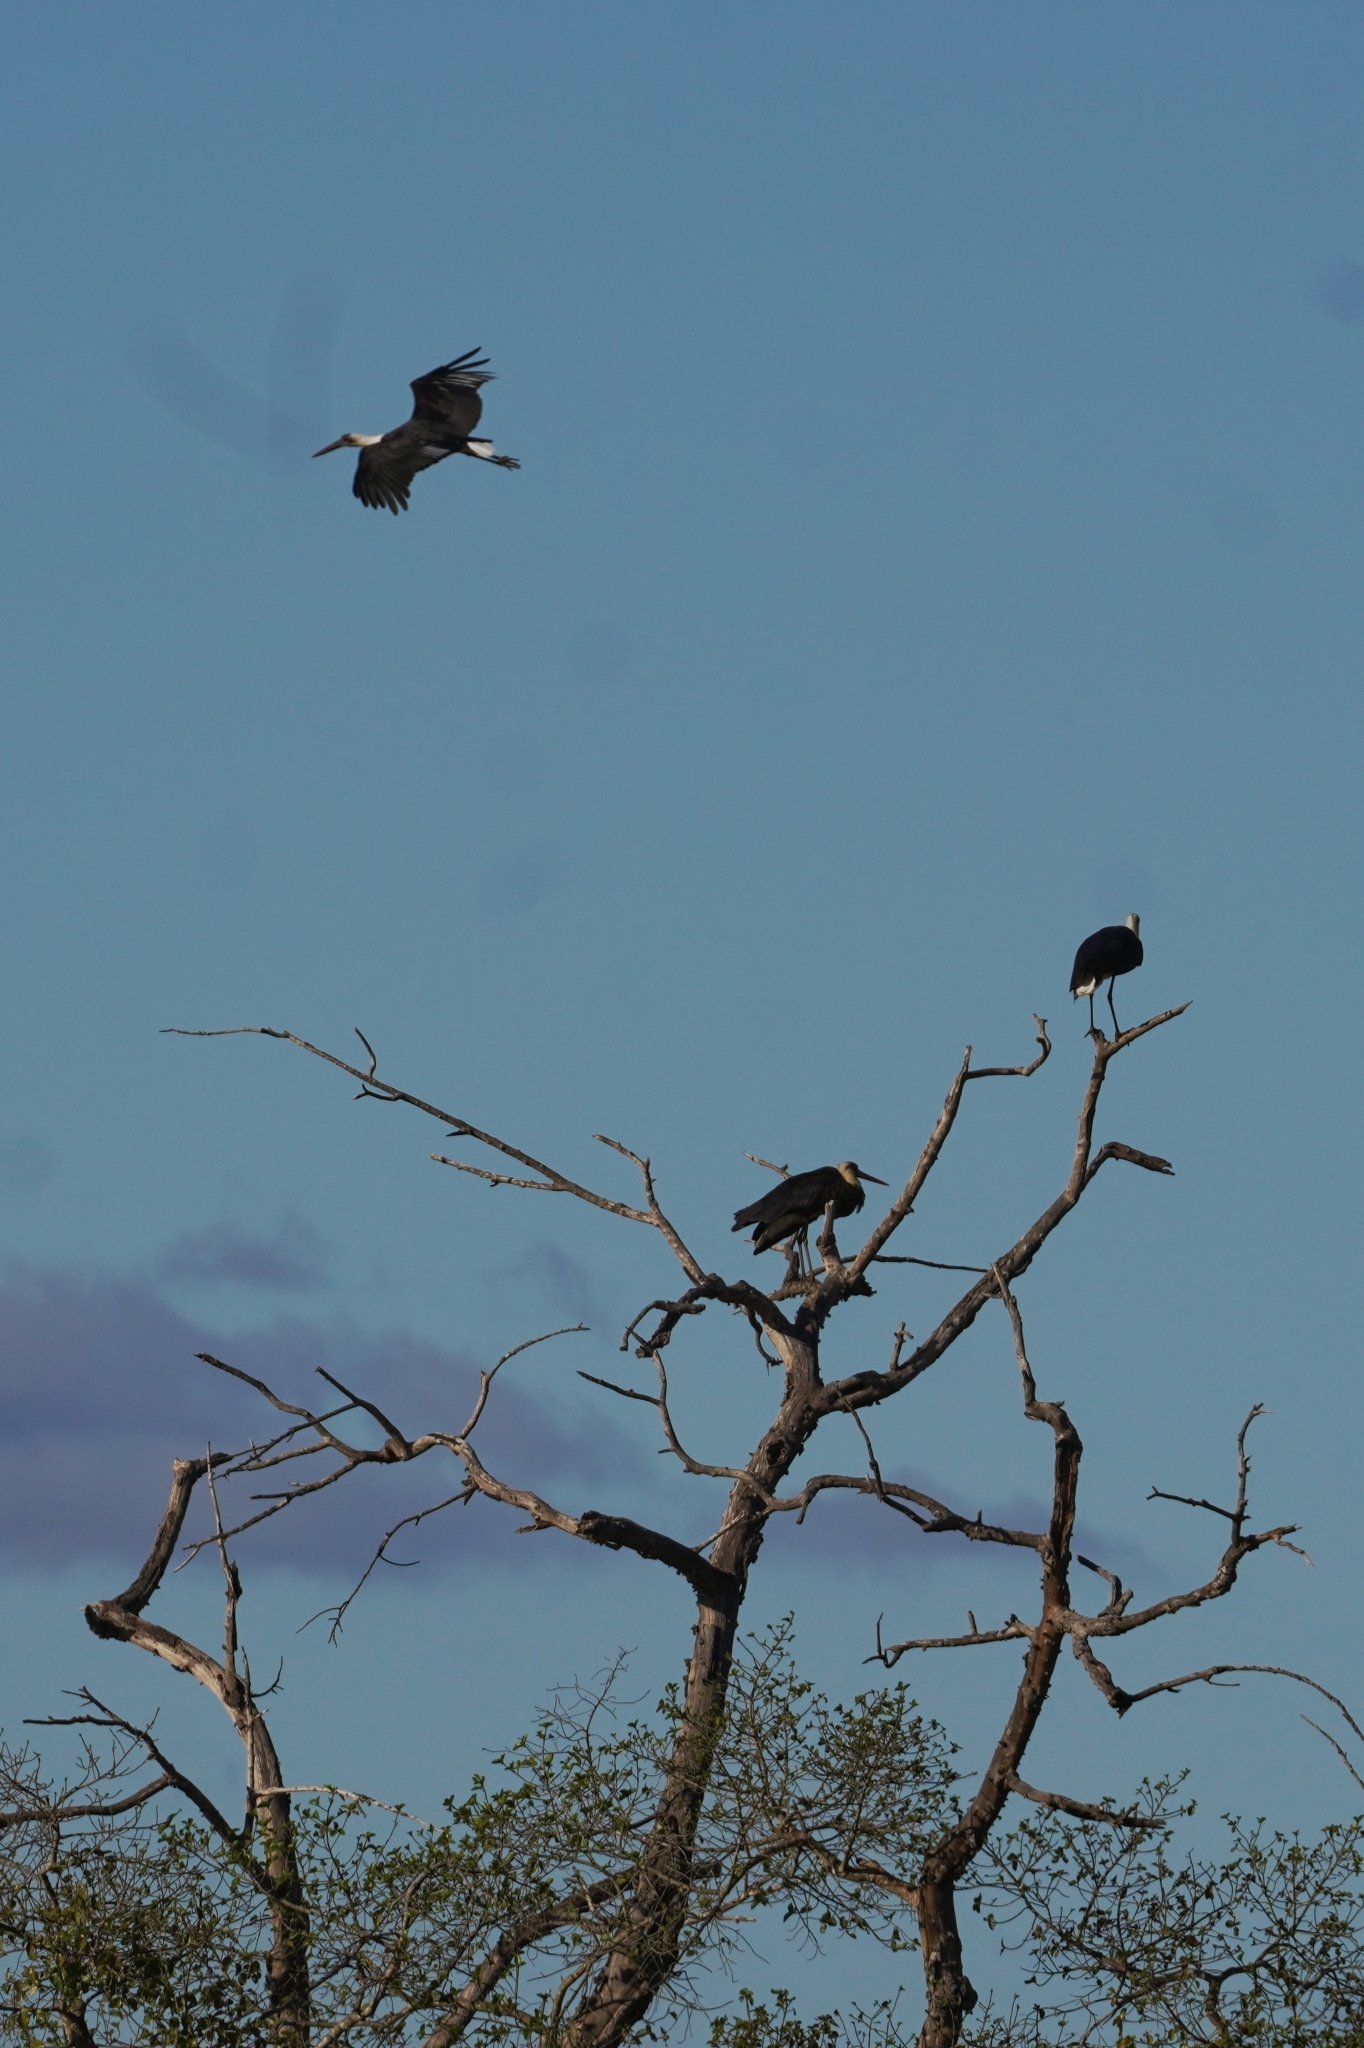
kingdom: Animalia
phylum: Chordata
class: Aves
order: Ciconiiformes
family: Ciconiidae
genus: Ciconia
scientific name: Ciconia microscelis
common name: African woollyneck
